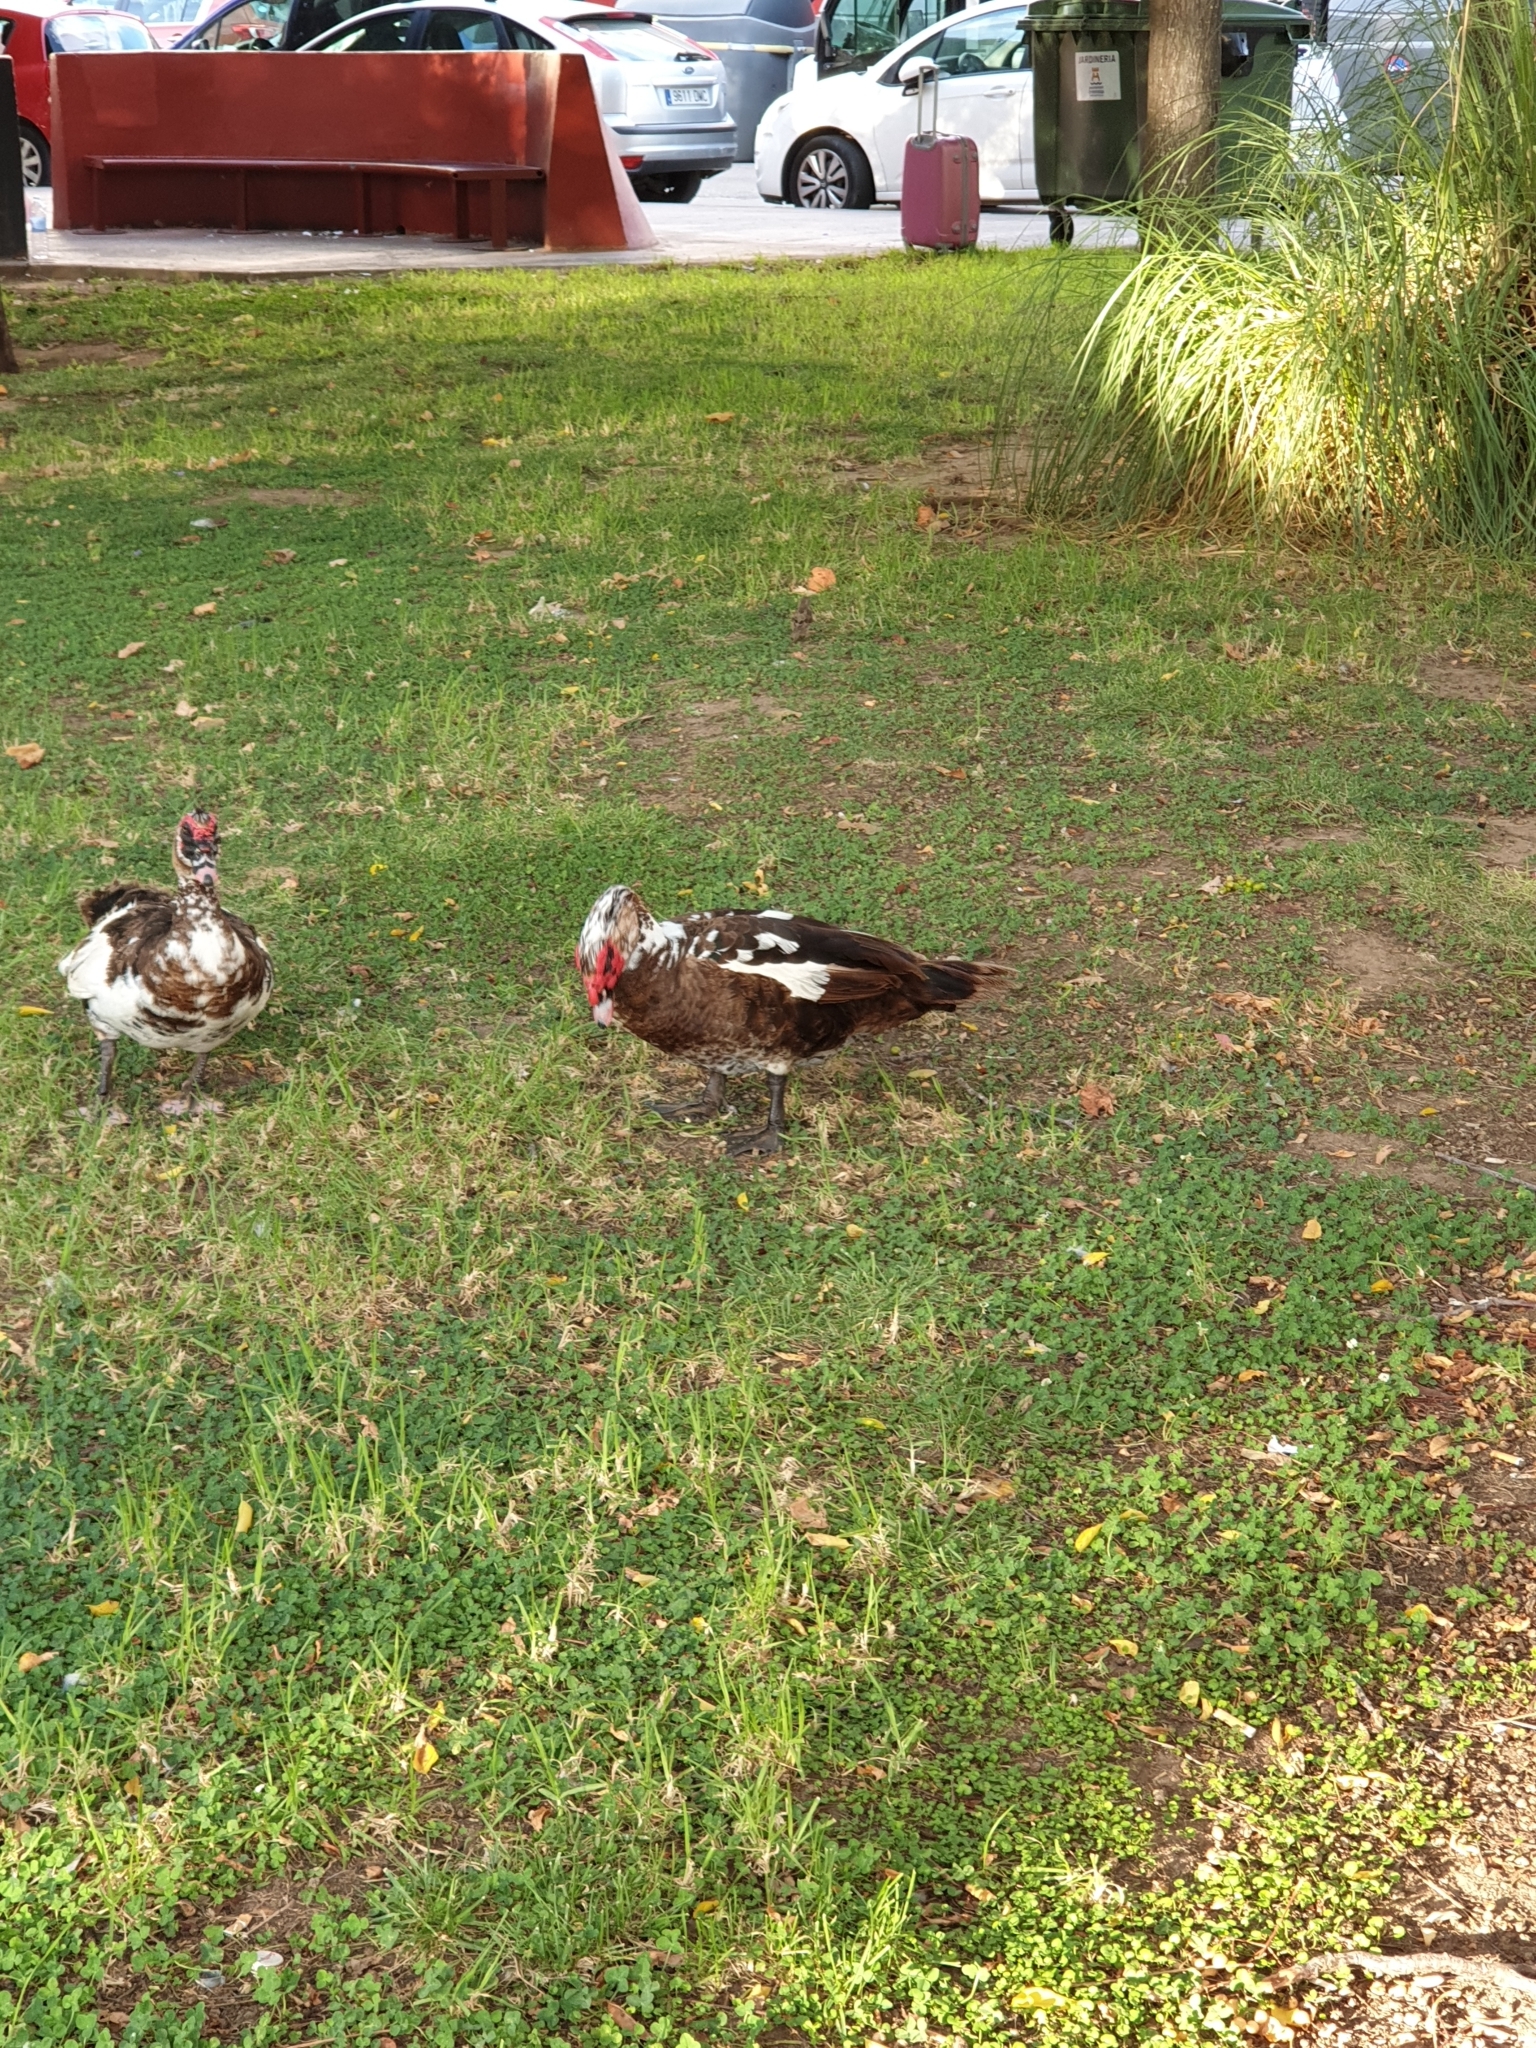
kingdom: Animalia
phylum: Chordata
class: Aves
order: Anseriformes
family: Anatidae
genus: Cairina
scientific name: Cairina moschata
